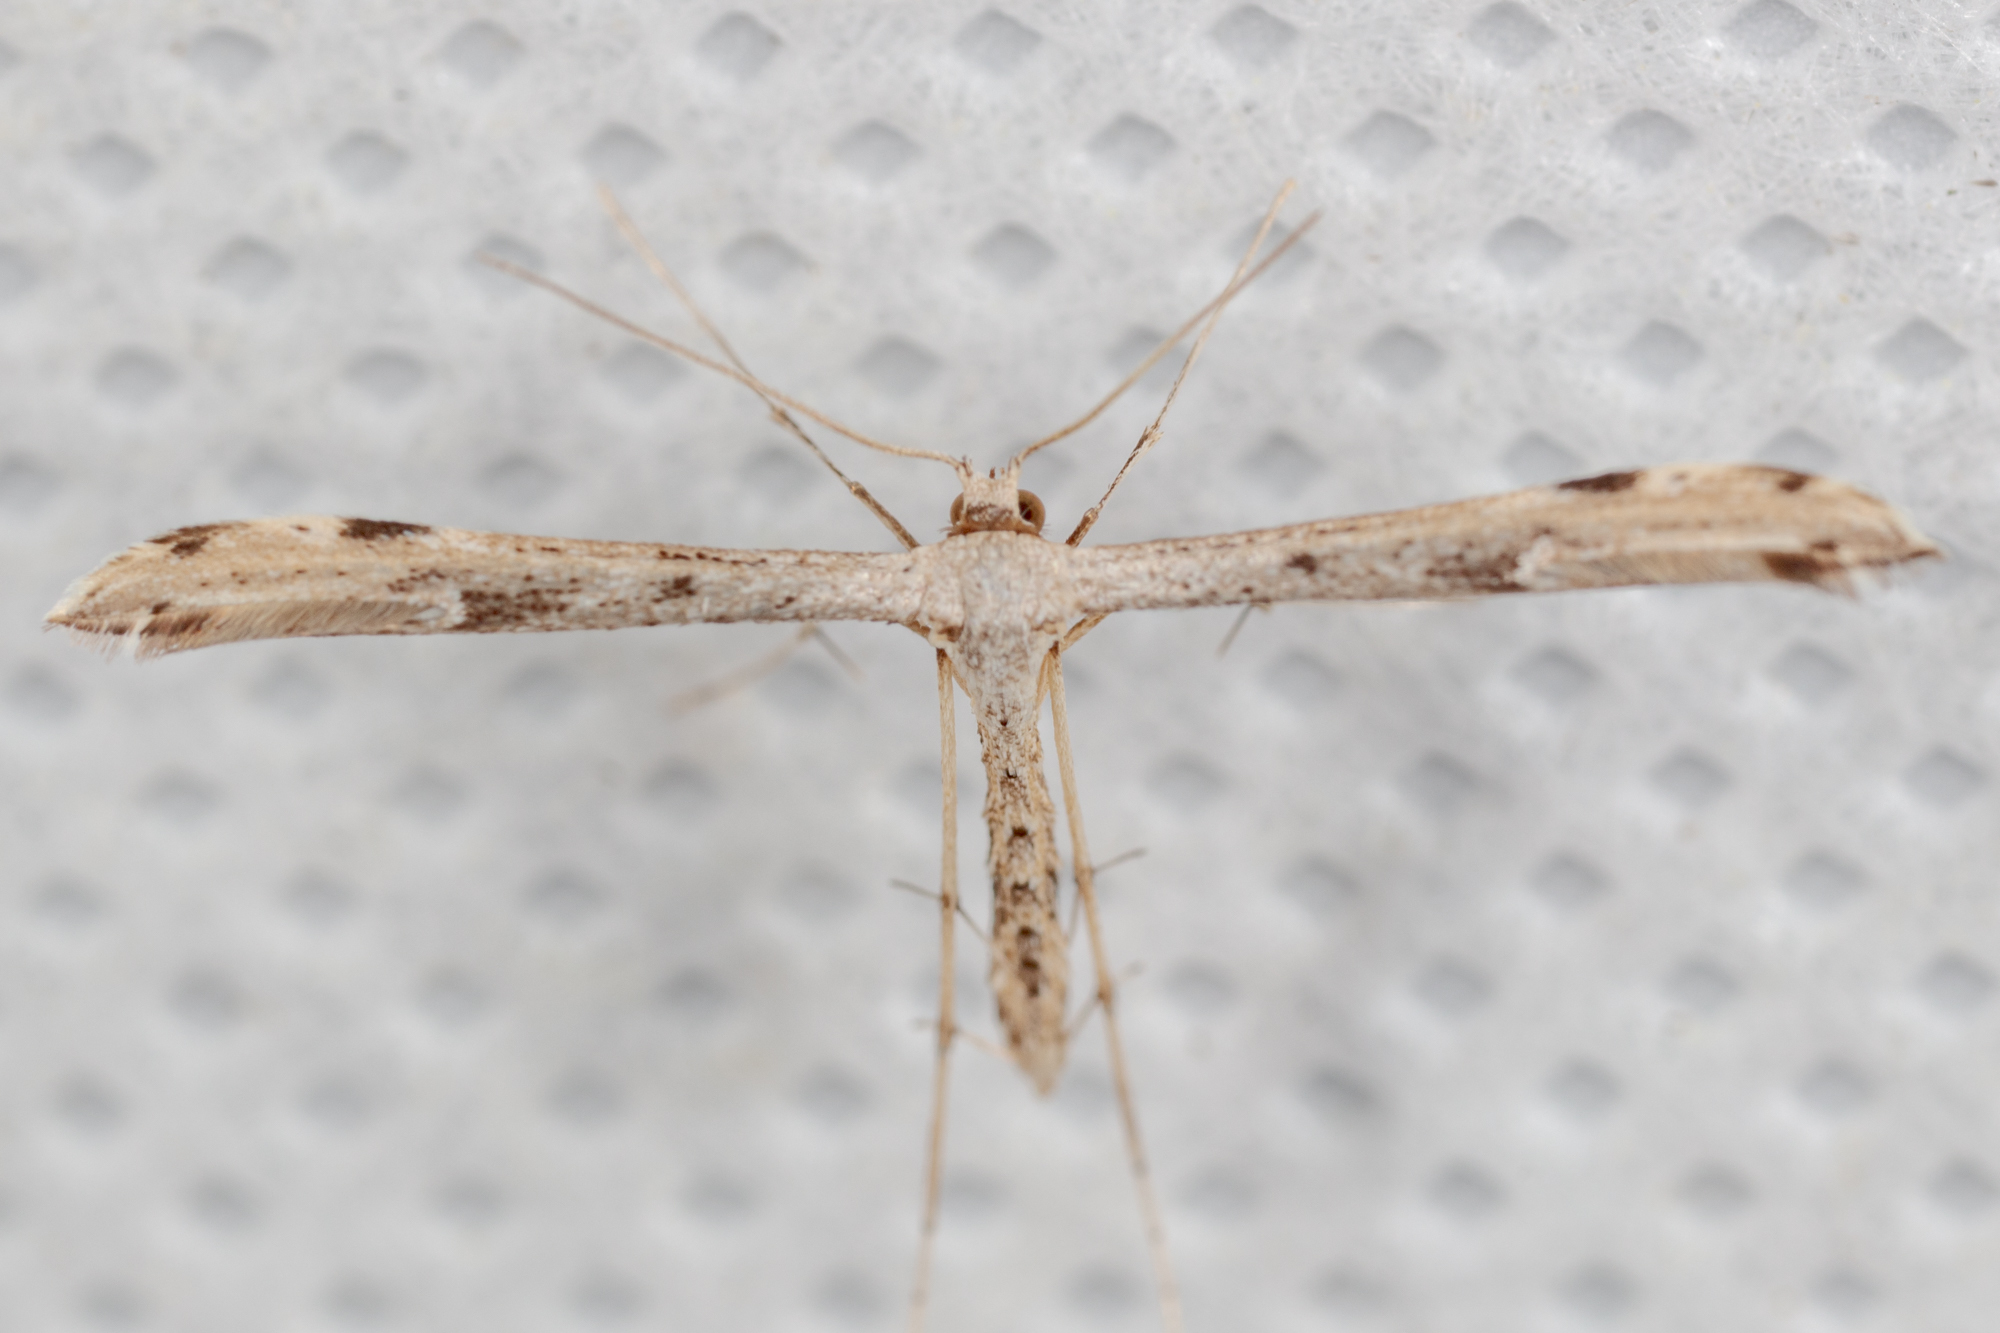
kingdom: Animalia
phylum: Arthropoda
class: Insecta
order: Lepidoptera
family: Pterophoridae
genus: Adaina
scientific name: Adaina ambrosiae
